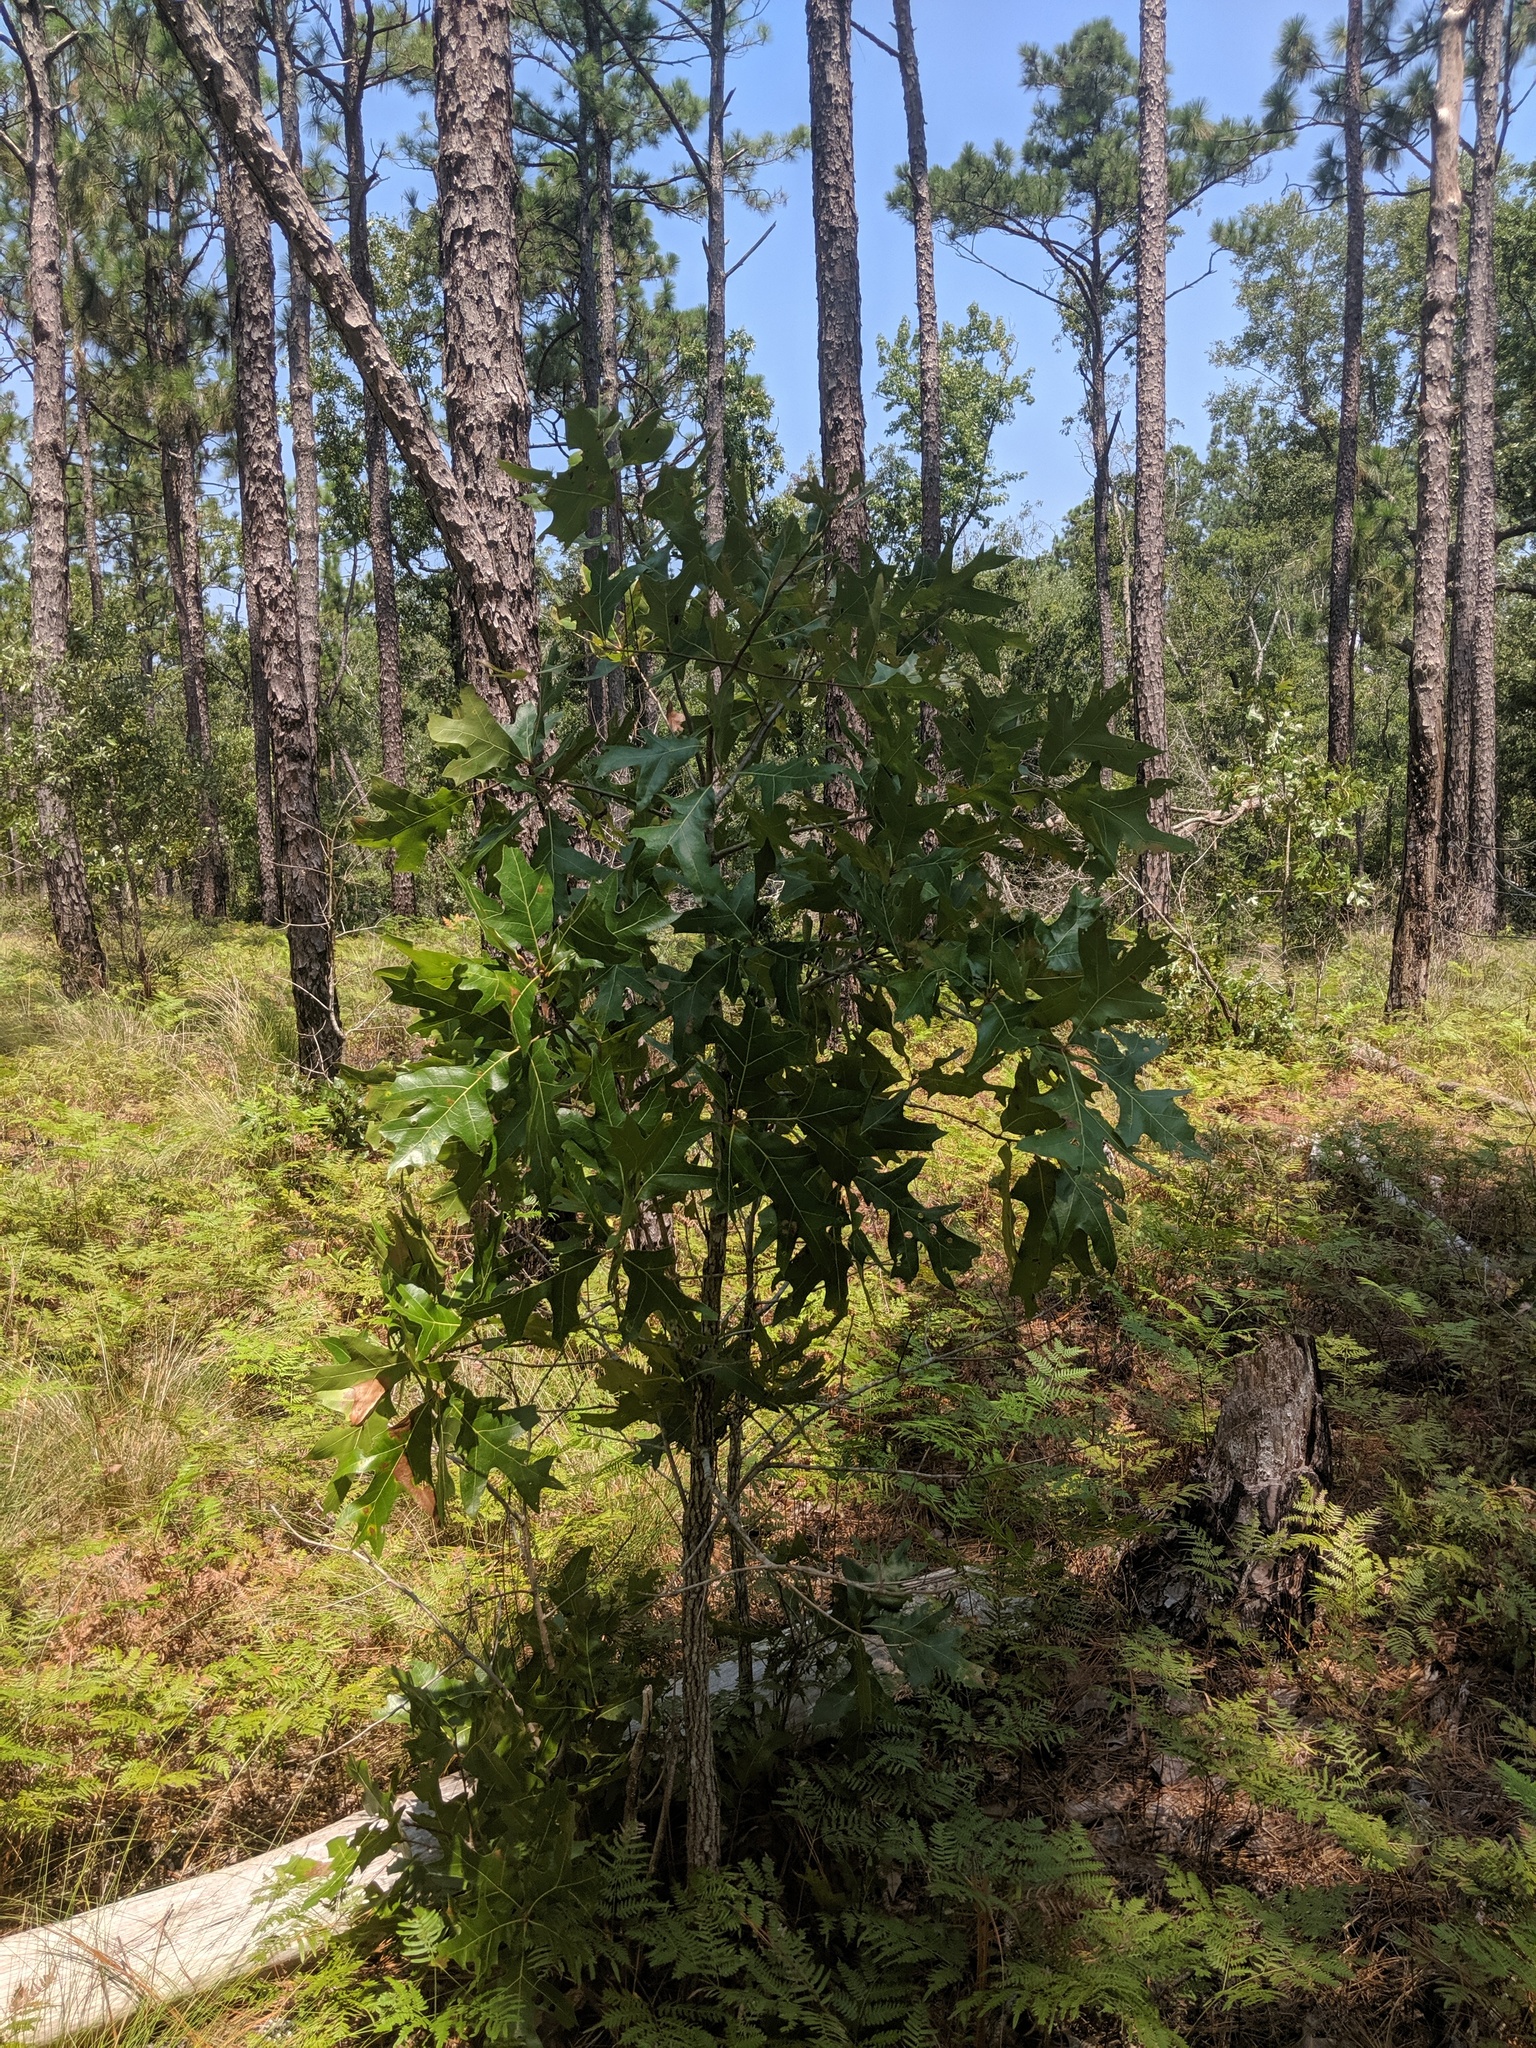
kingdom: Plantae
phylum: Tracheophyta
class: Magnoliopsida
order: Fagales
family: Fagaceae
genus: Quercus
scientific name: Quercus laevis
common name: Turkey oak
